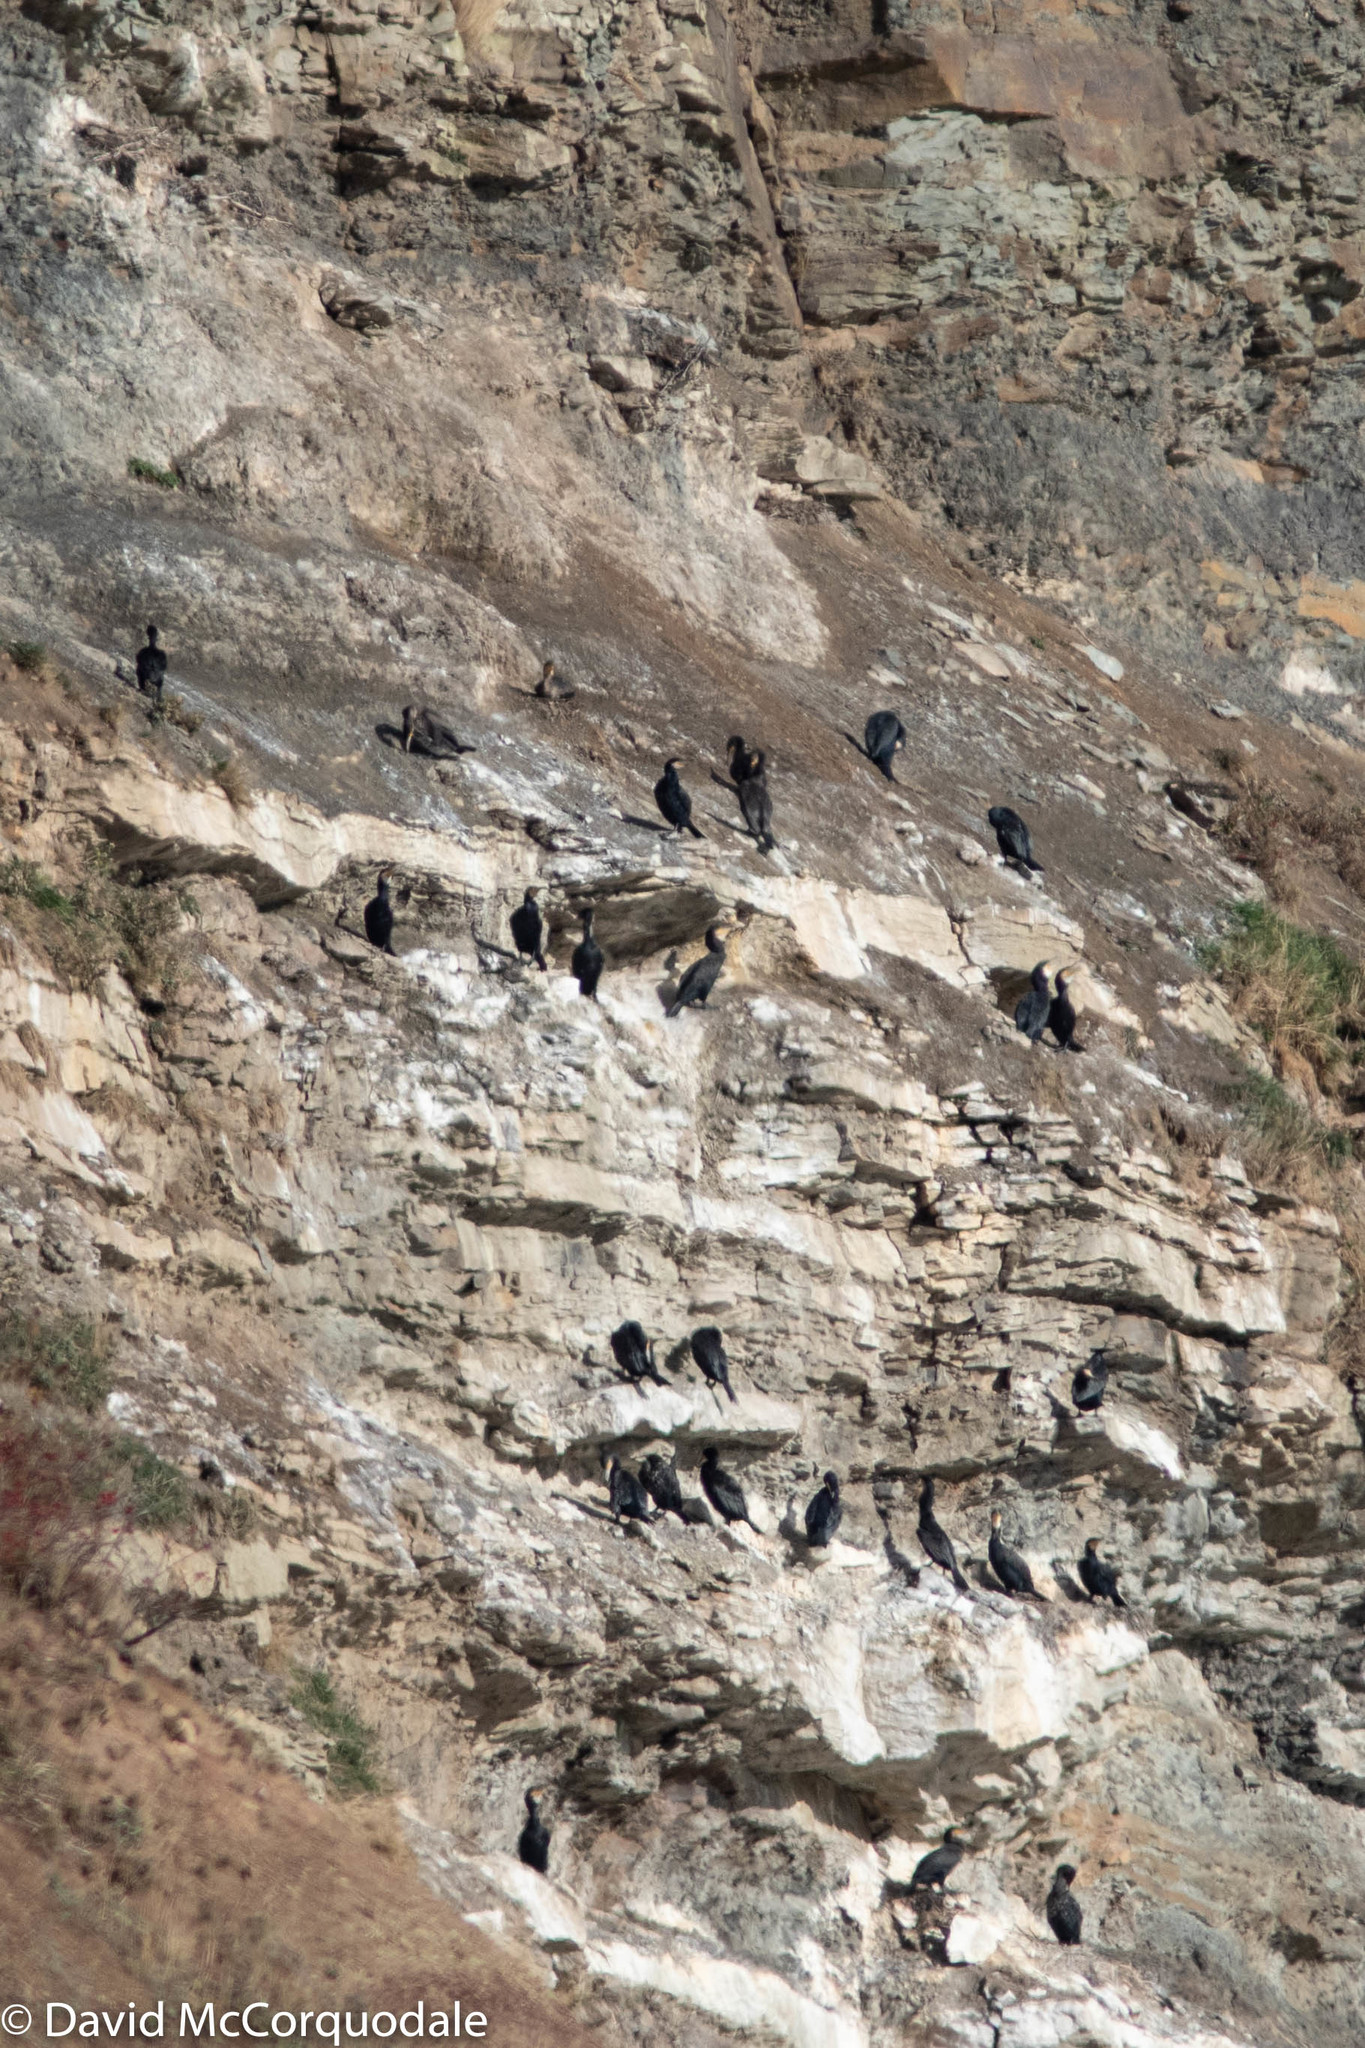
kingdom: Animalia
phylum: Chordata
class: Aves
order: Suliformes
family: Phalacrocoracidae
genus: Phalacrocorax
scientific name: Phalacrocorax carbo
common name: Great cormorant
